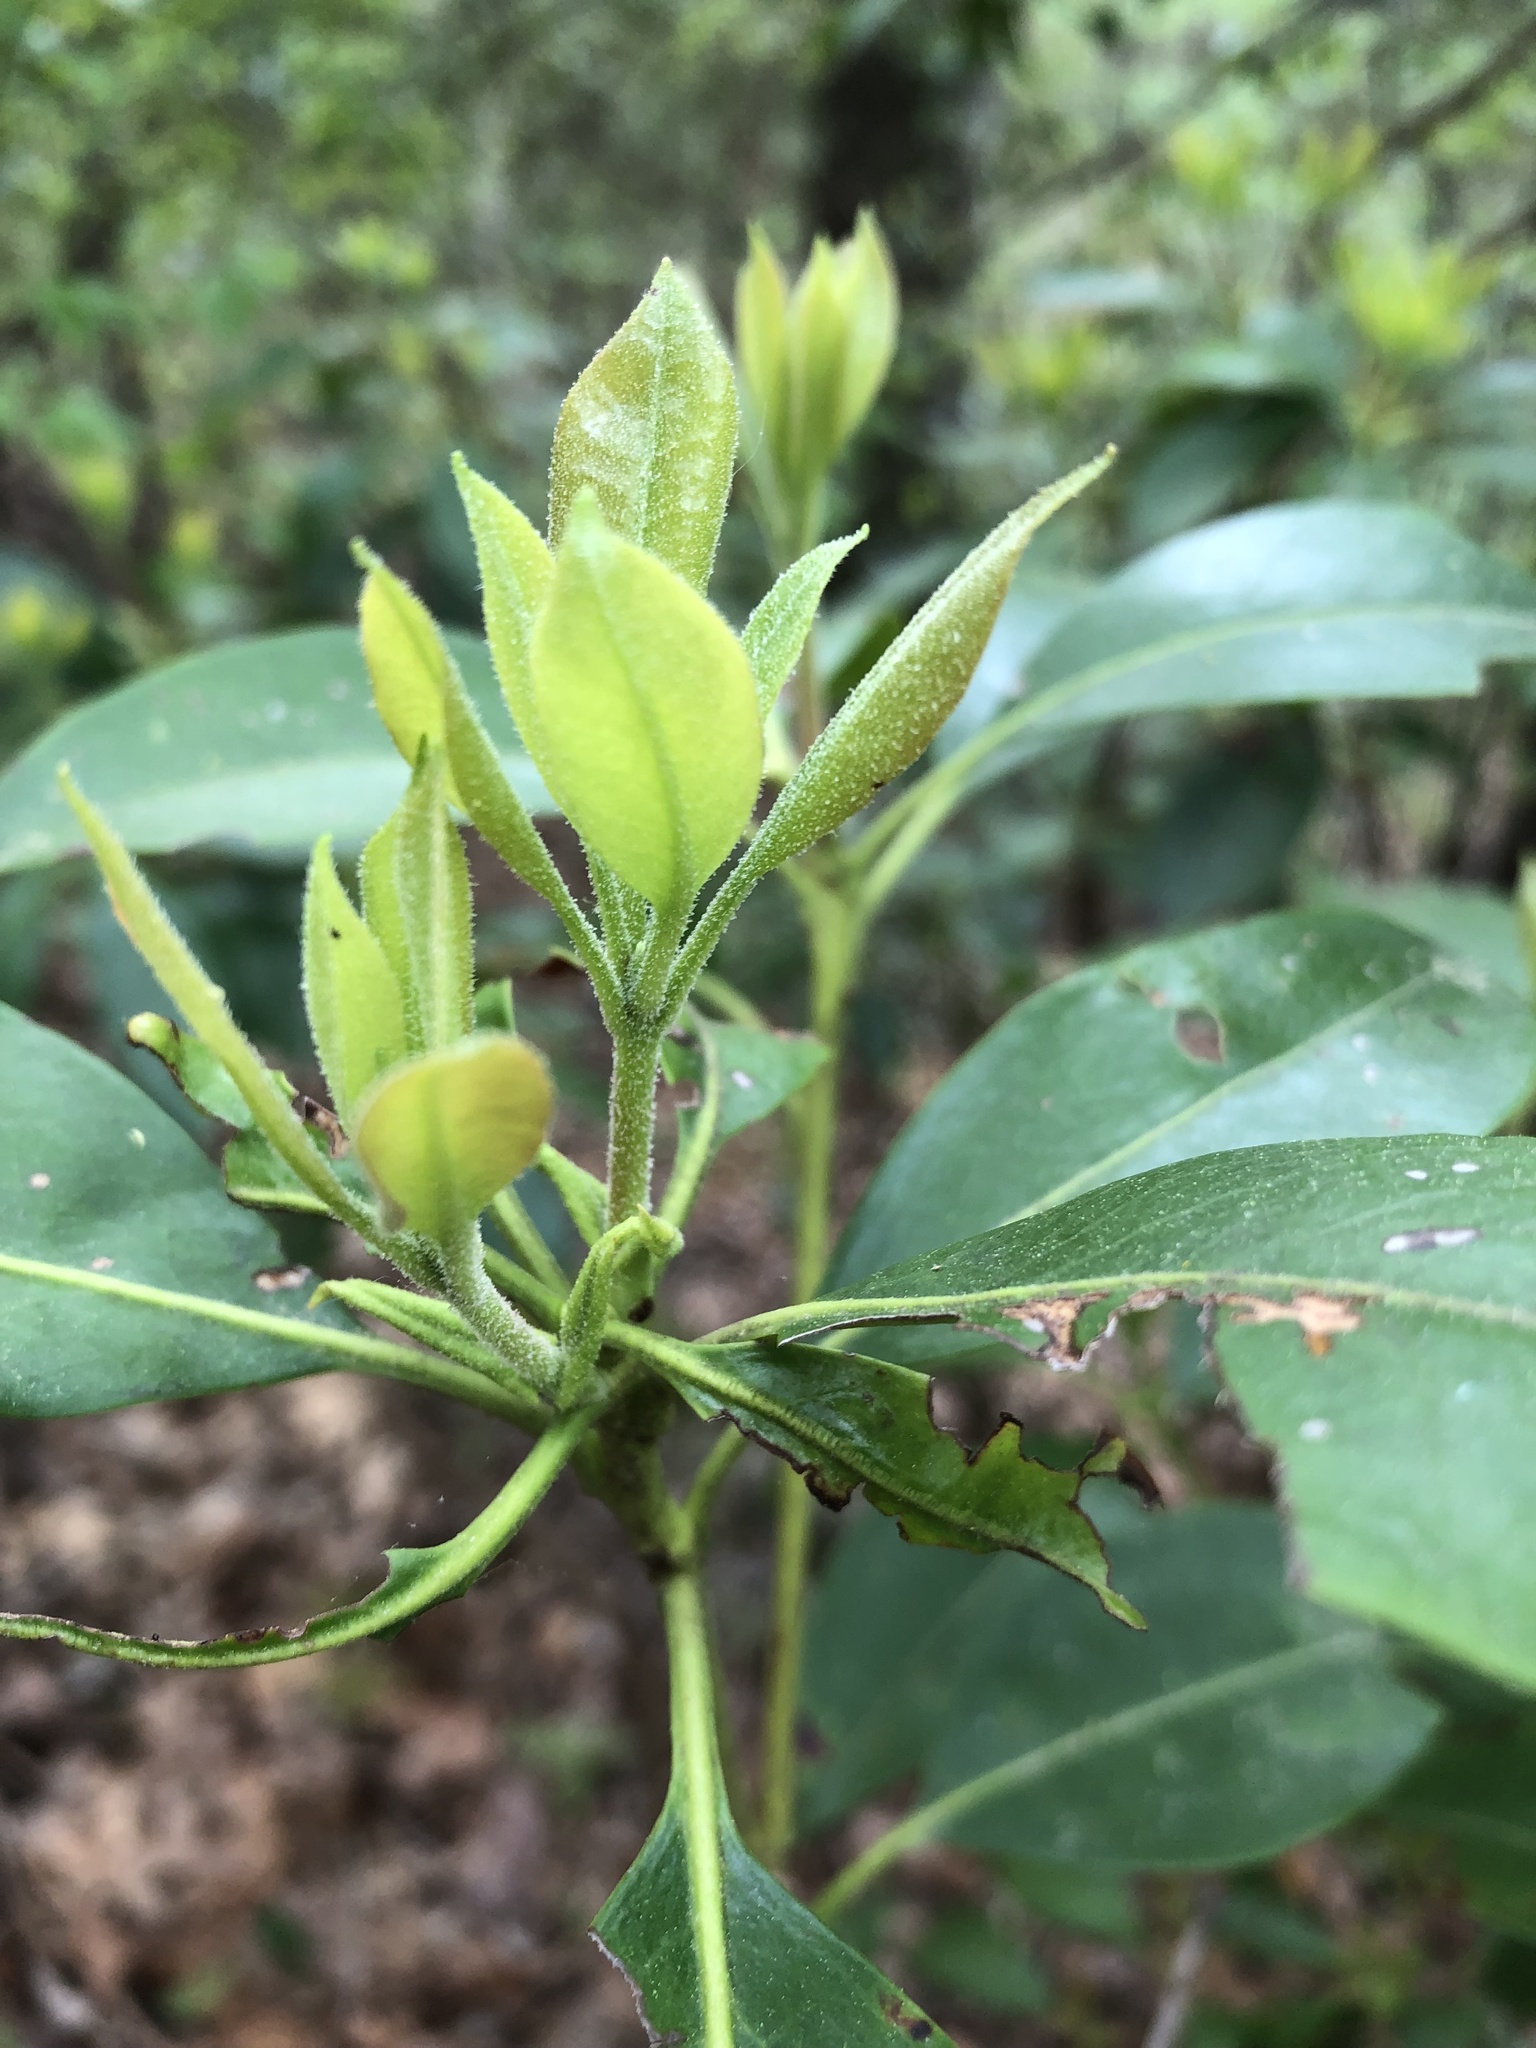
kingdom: Plantae
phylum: Tracheophyta
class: Magnoliopsida
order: Ericales
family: Ericaceae
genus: Kalmia
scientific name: Kalmia latifolia
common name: Mountain-laurel
